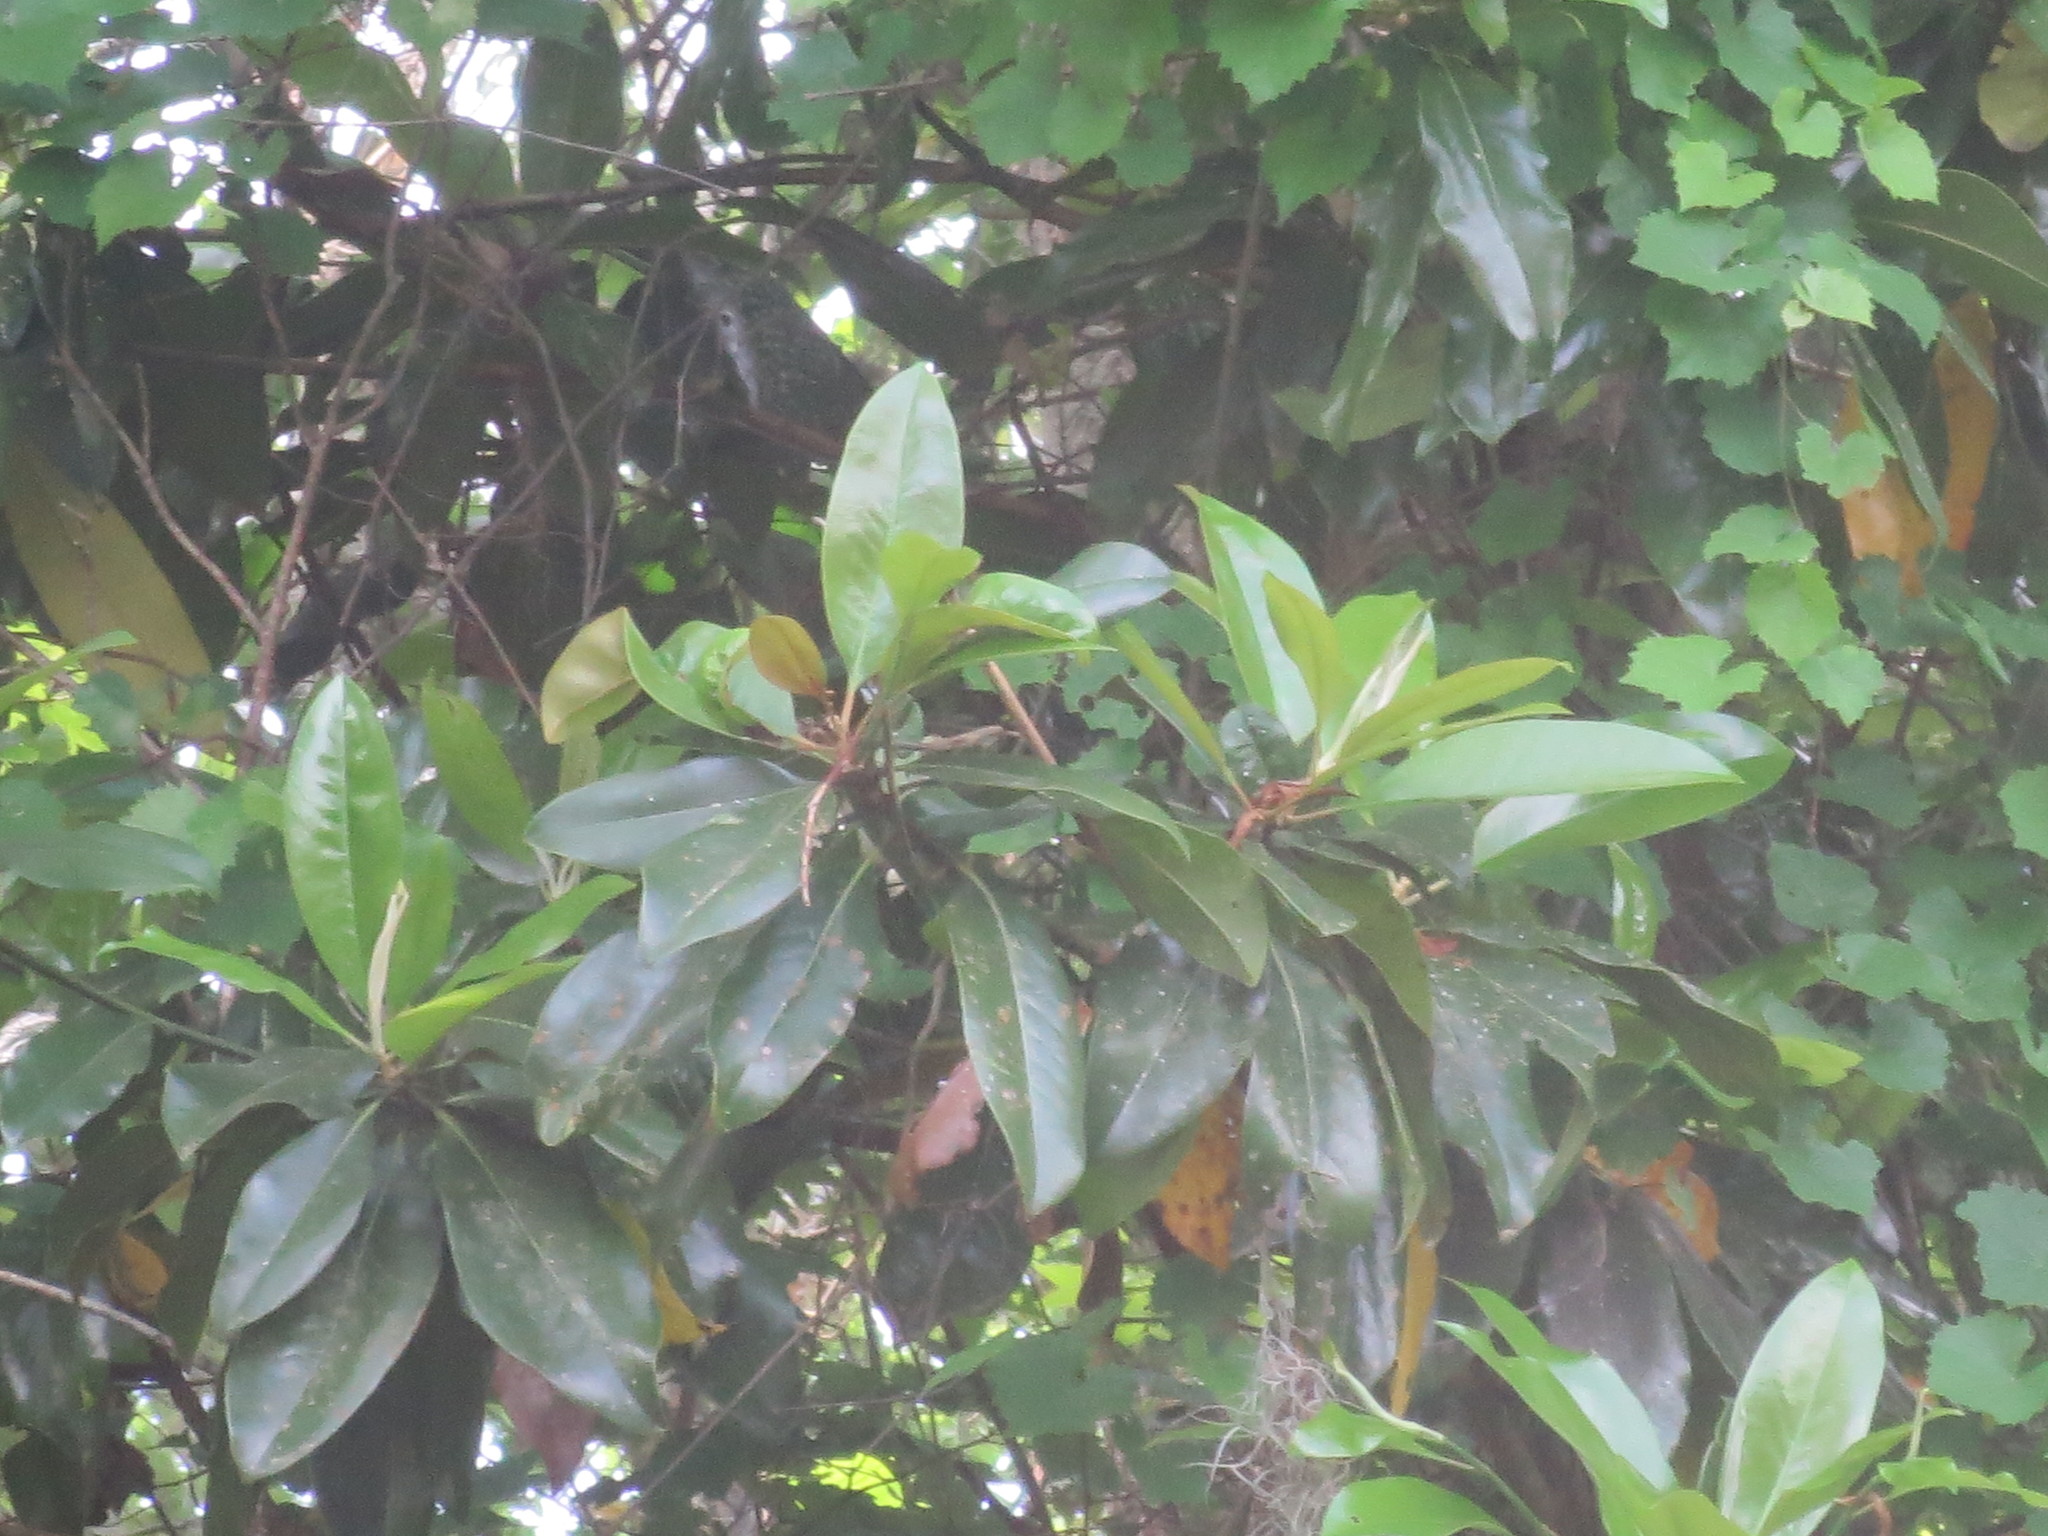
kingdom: Plantae
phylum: Tracheophyta
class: Magnoliopsida
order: Magnoliales
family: Magnoliaceae
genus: Magnolia
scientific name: Magnolia grandiflora
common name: Southern magnolia
